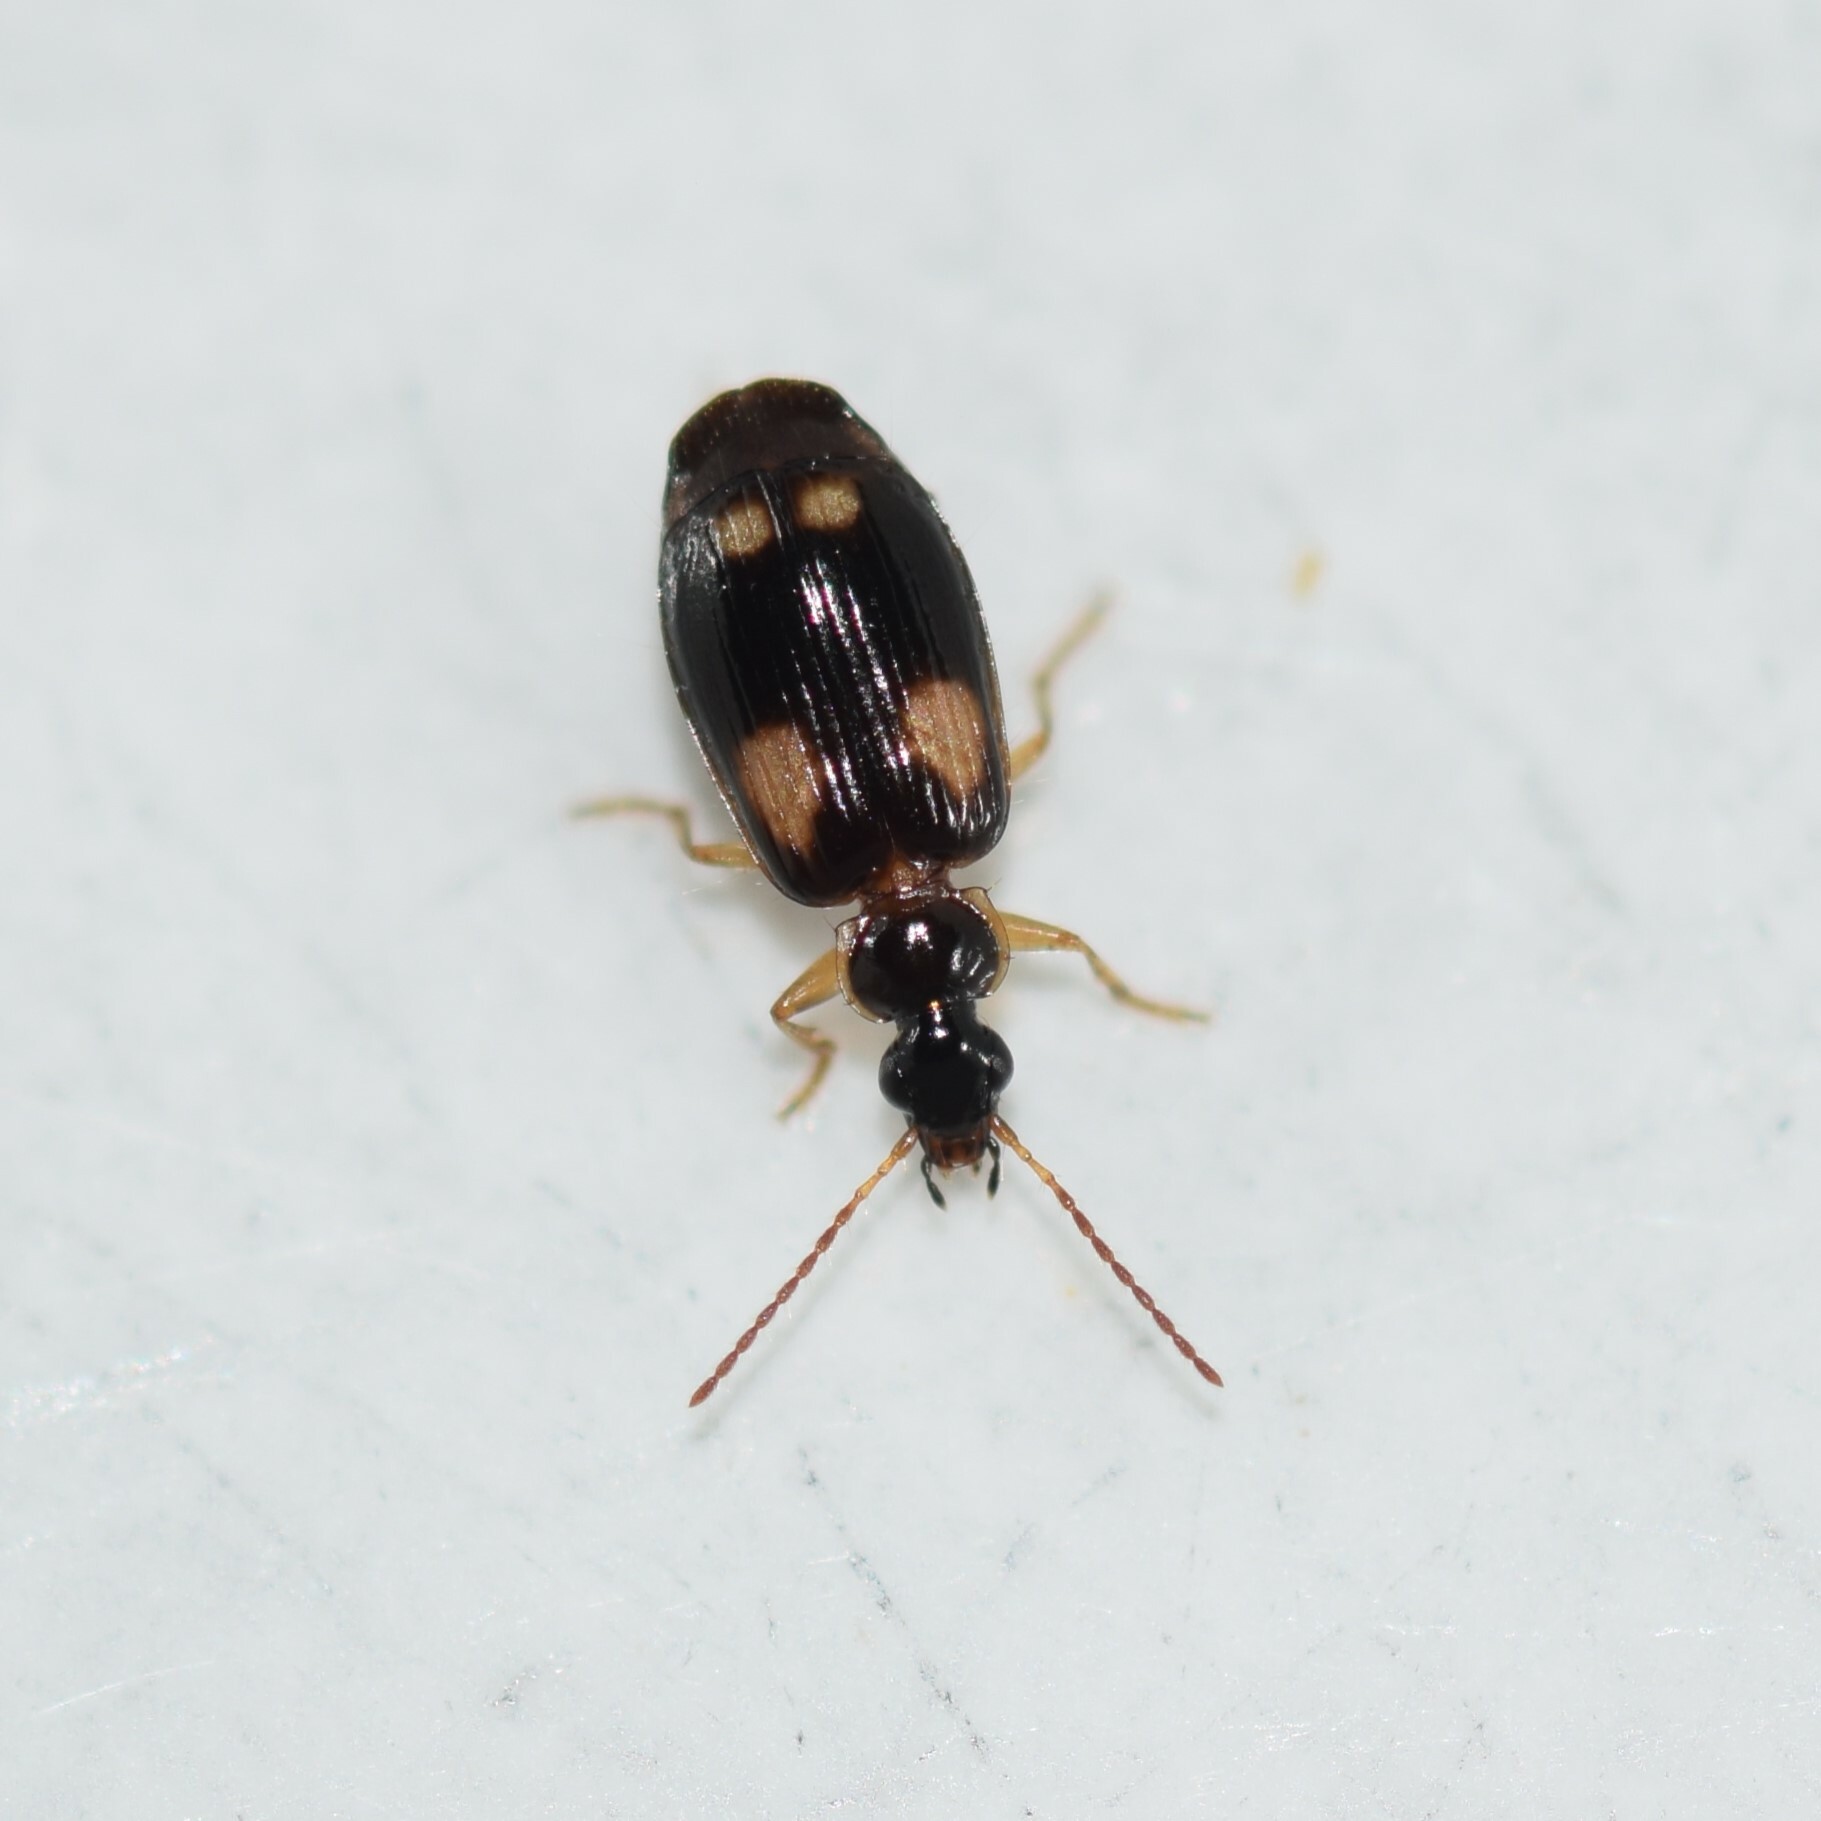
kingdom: Animalia
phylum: Arthropoda
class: Insecta
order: Coleoptera
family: Carabidae
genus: Lebia
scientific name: Lebia ornata
